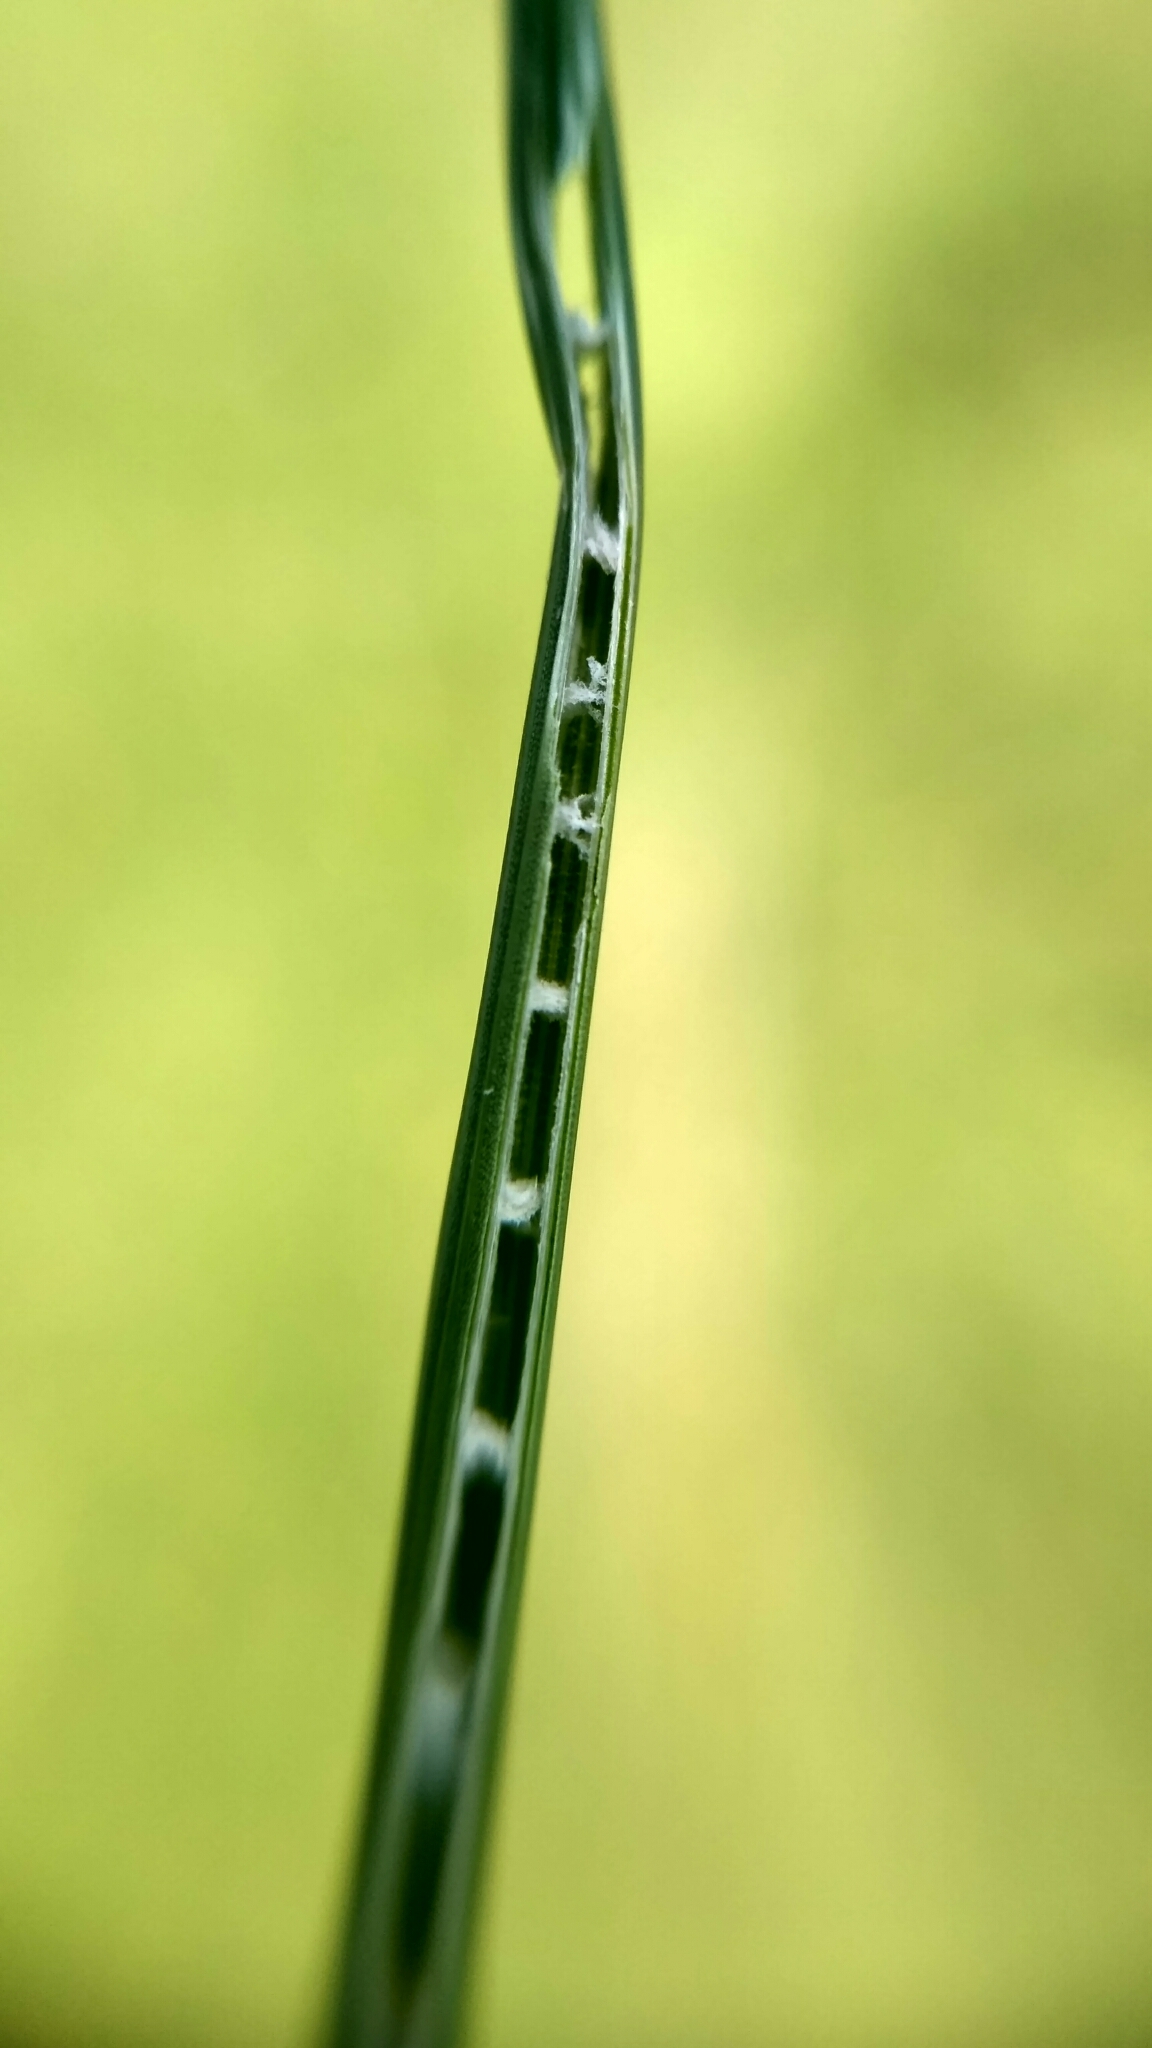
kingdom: Plantae
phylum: Tracheophyta
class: Liliopsida
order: Poales
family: Juncaceae
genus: Juncus
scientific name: Juncus inflexus
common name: Hard rush
